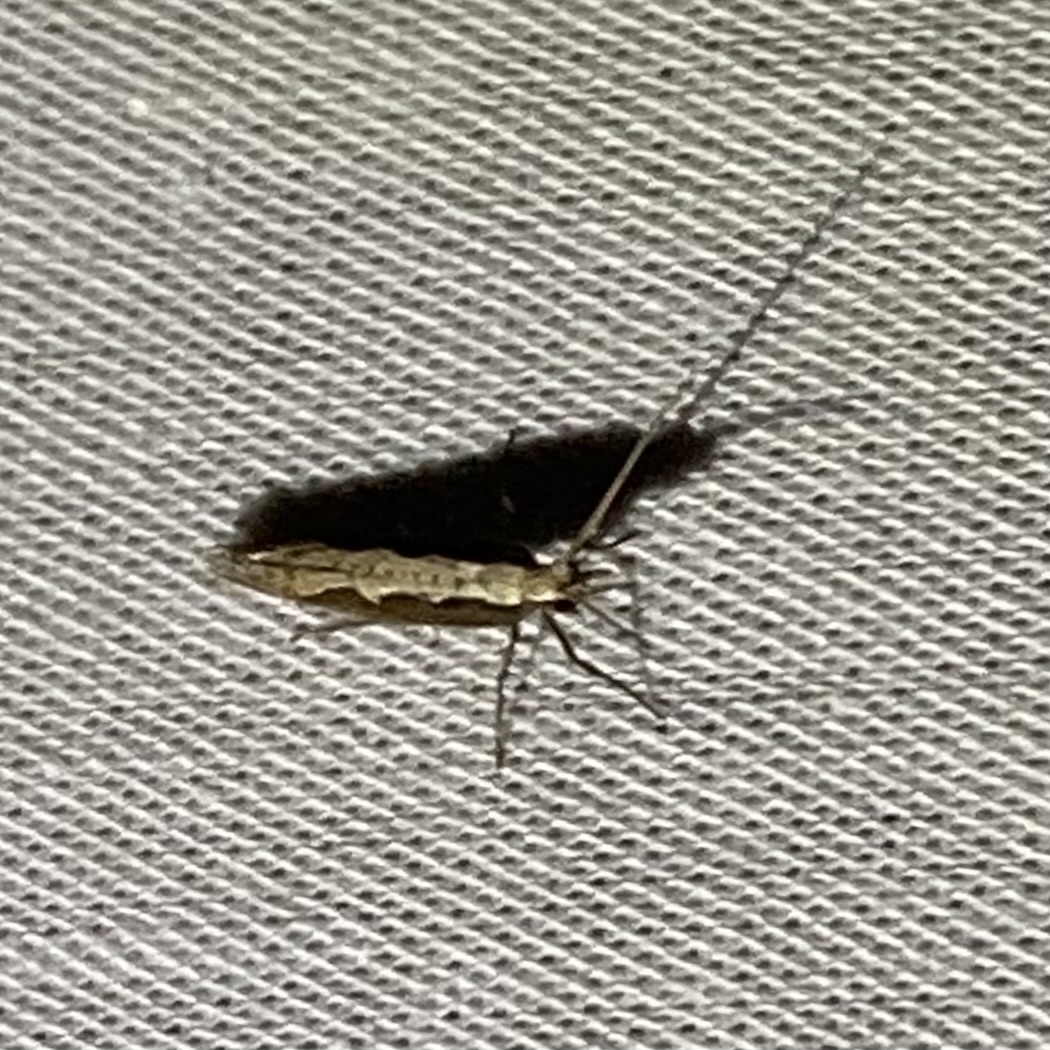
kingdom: Animalia
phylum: Arthropoda
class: Insecta
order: Lepidoptera
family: Plutellidae
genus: Plutella
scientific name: Plutella xylostella
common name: Diamond-back moth
